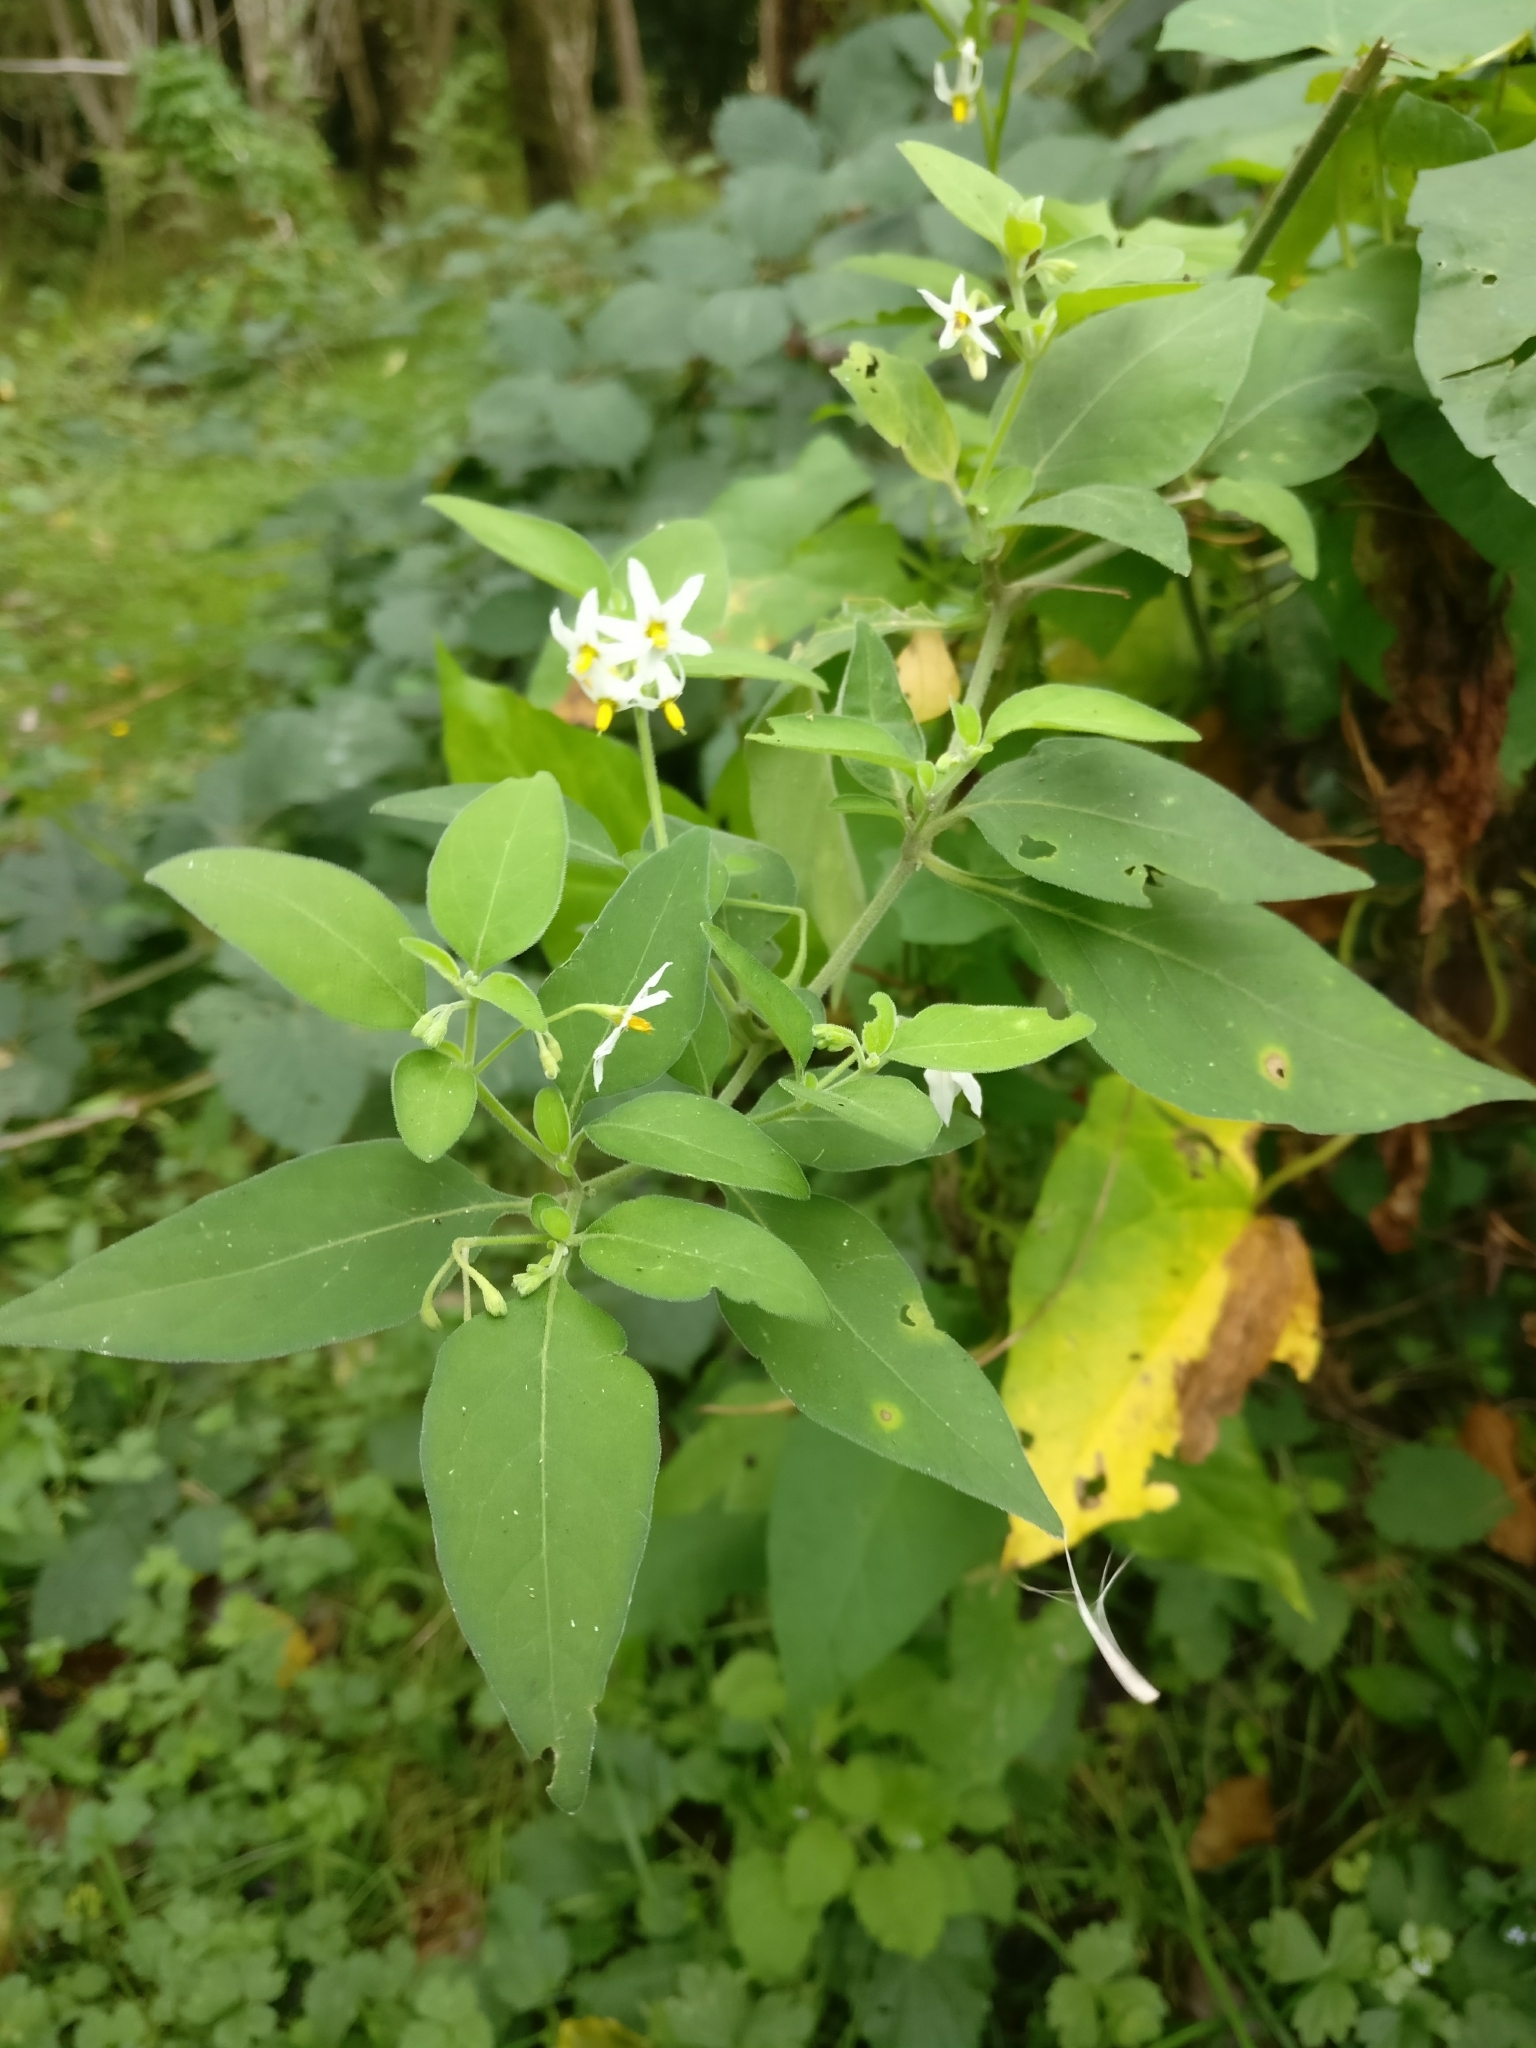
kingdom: Plantae
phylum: Tracheophyta
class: Magnoliopsida
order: Solanales
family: Solanaceae
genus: Solanum
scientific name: Solanum chenopodioides
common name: Tall nightshade
